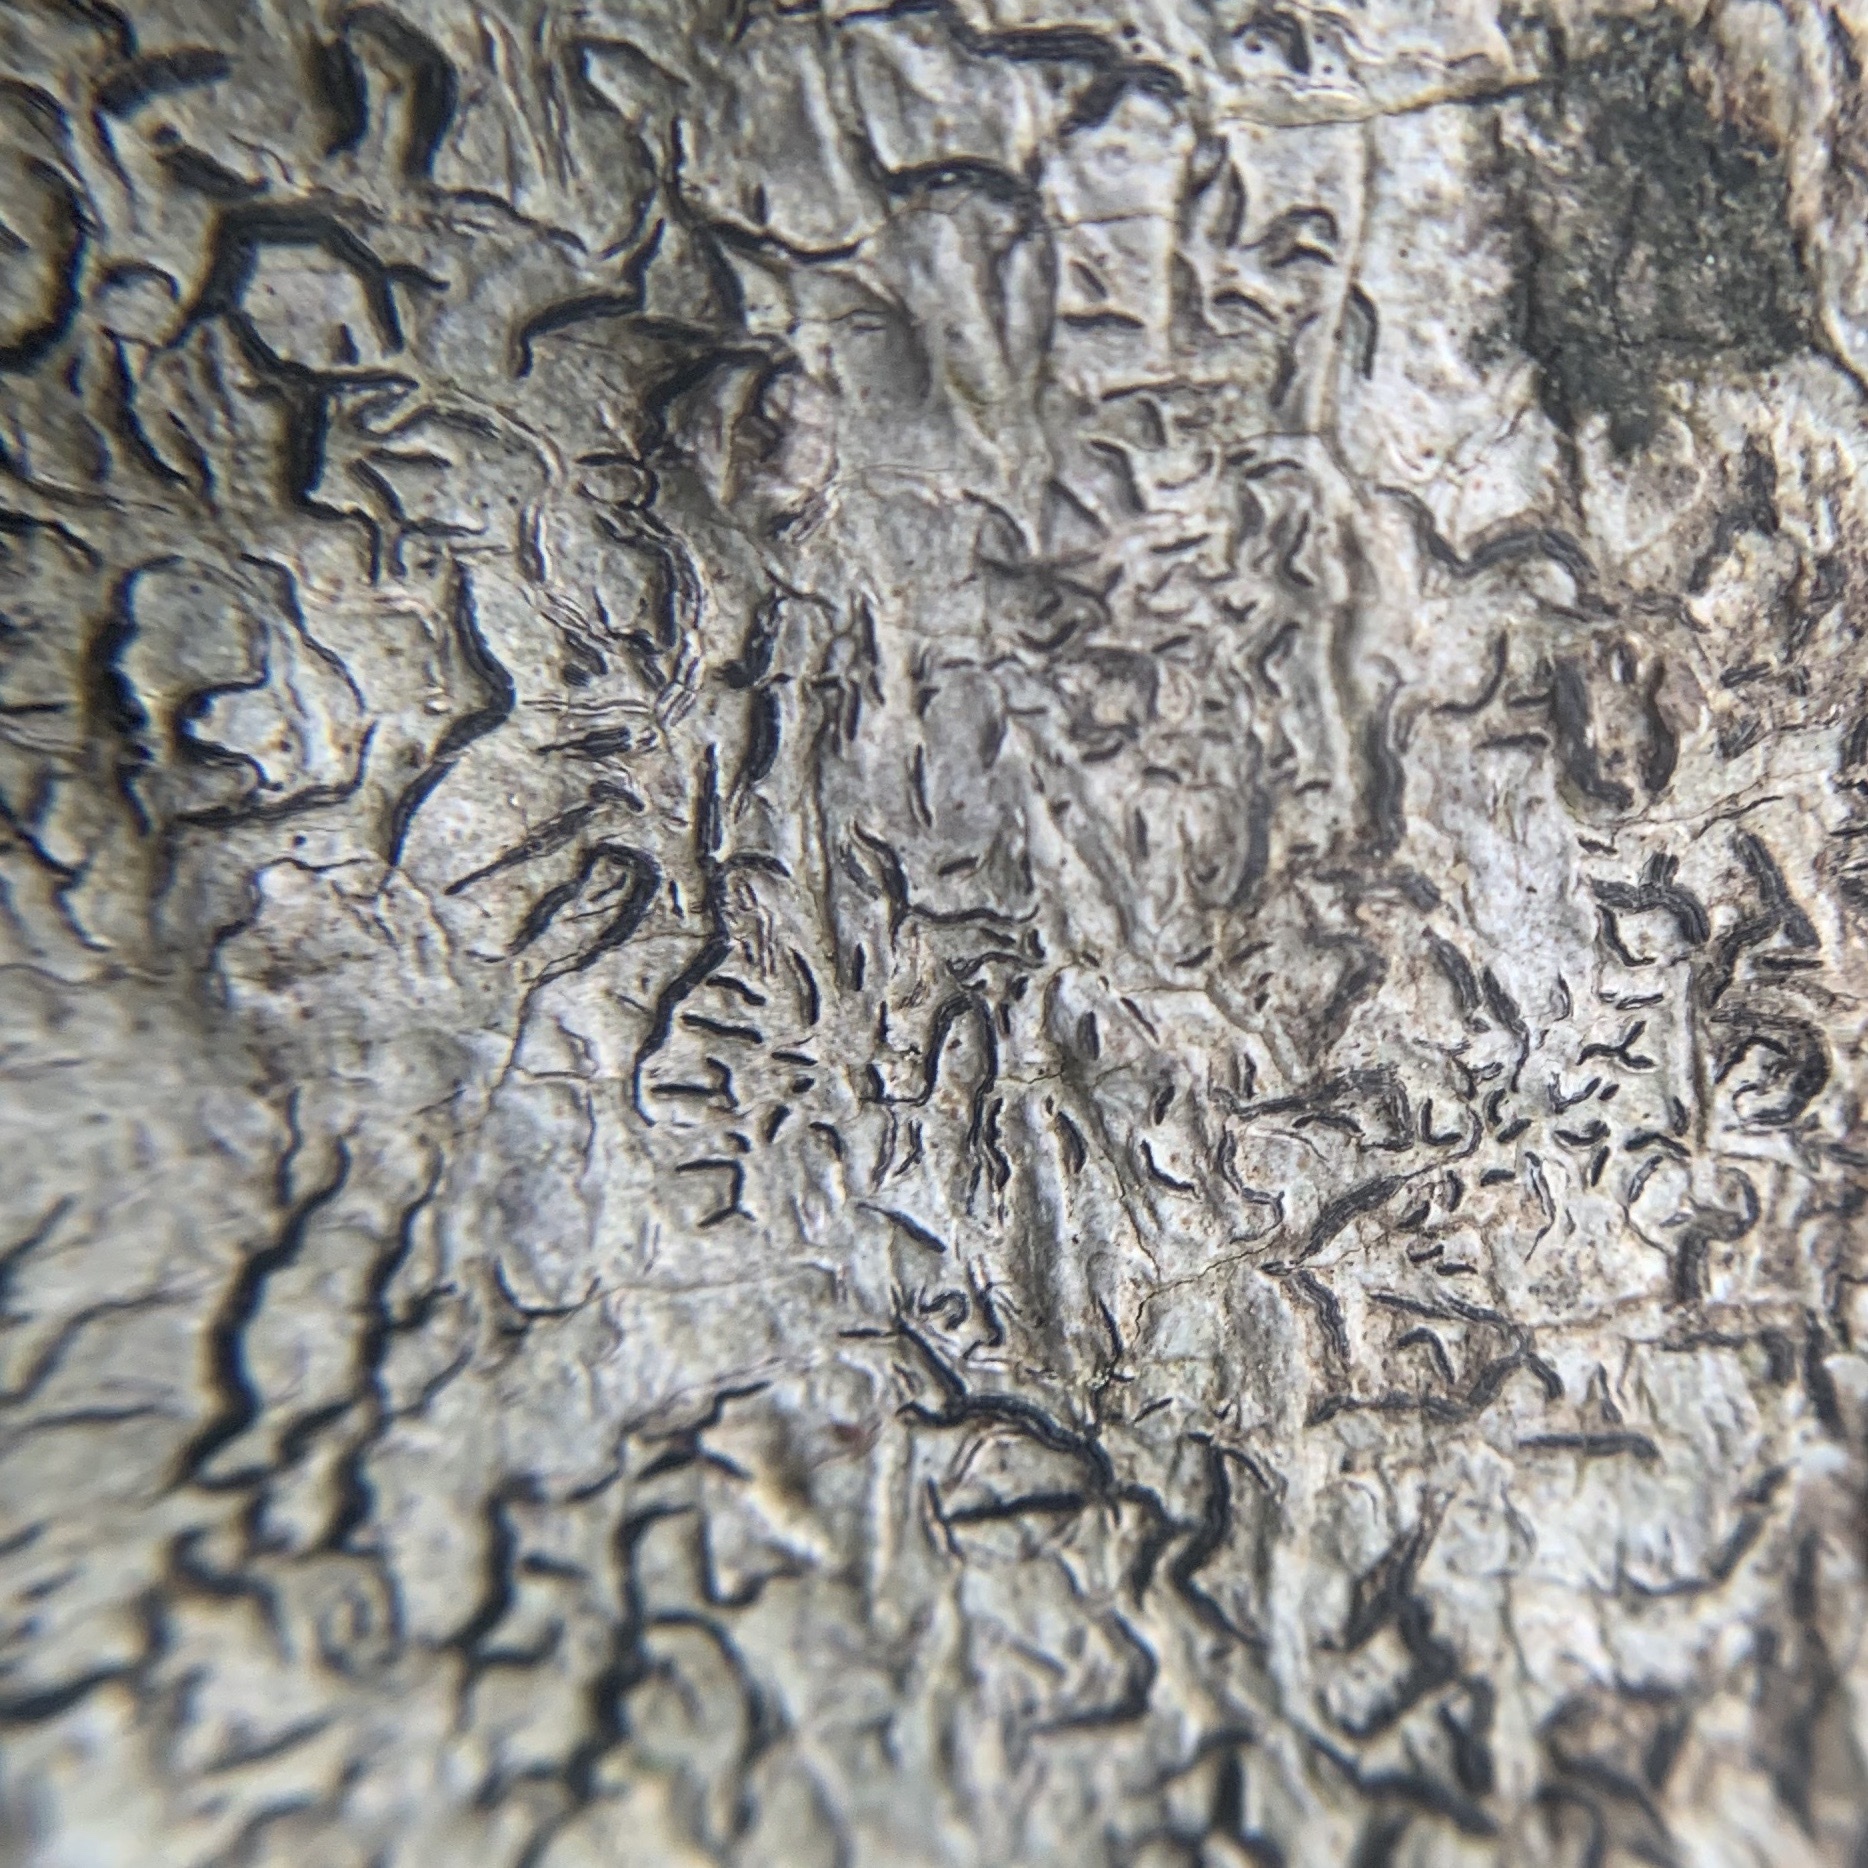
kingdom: Fungi
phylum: Ascomycota
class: Lecanoromycetes
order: Ostropales
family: Graphidaceae
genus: Graphis
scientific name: Graphis scripta
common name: Script lichen
